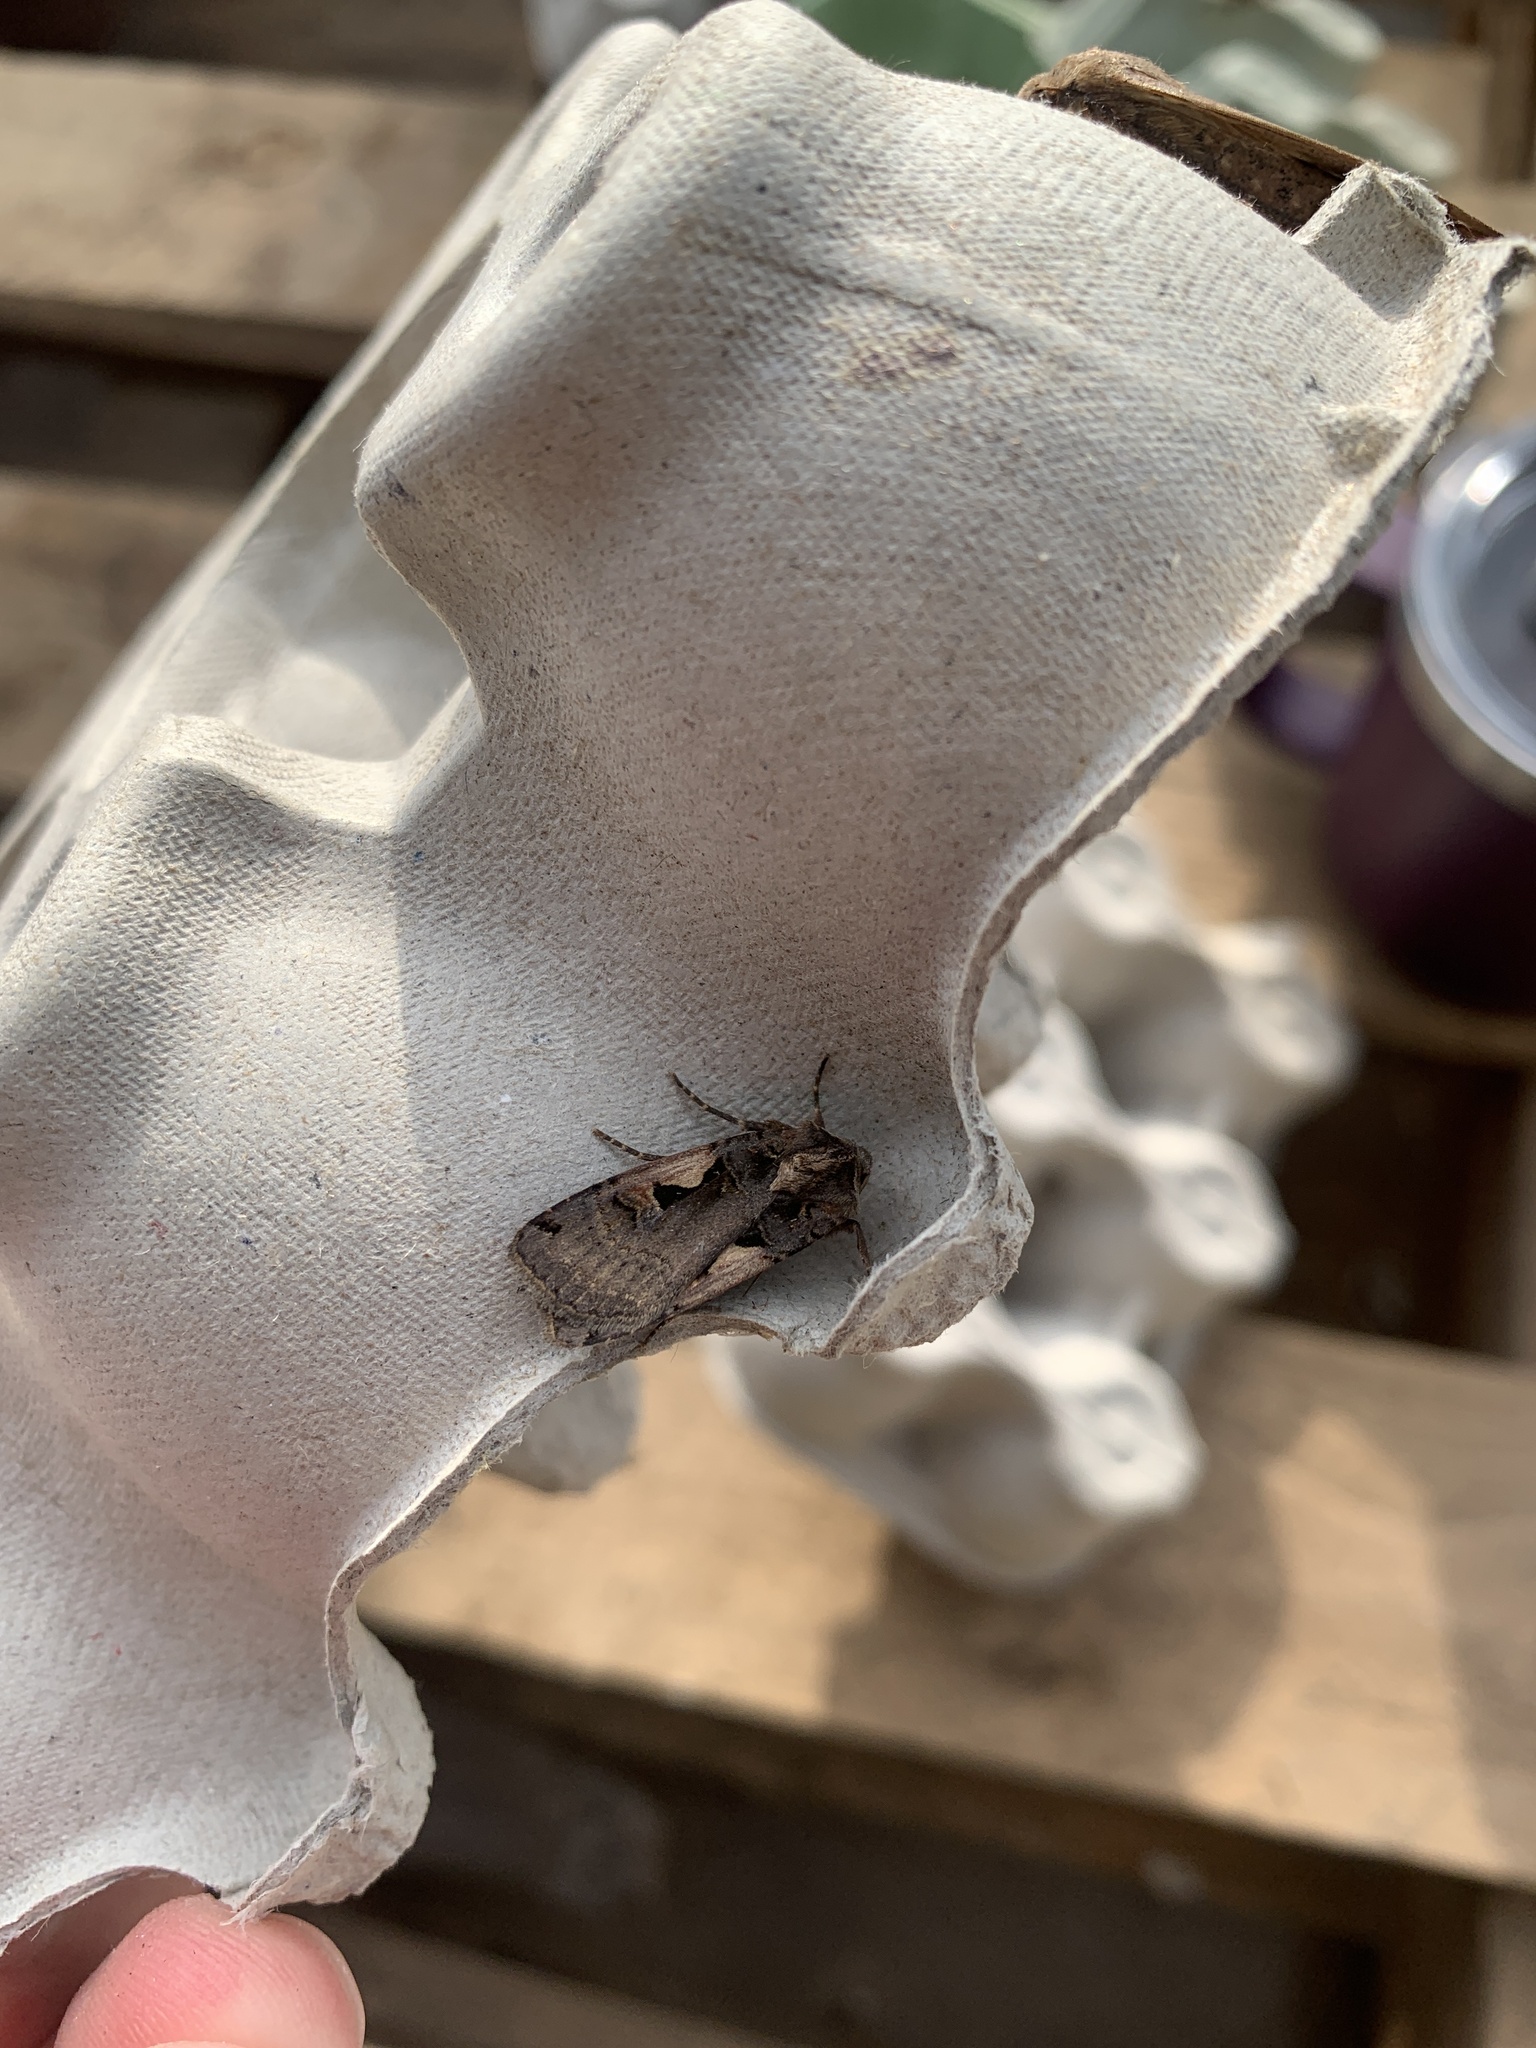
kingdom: Animalia
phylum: Arthropoda
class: Insecta
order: Lepidoptera
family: Noctuidae
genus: Xestia
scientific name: Xestia c-nigrum
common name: Setaceous hebrew character
